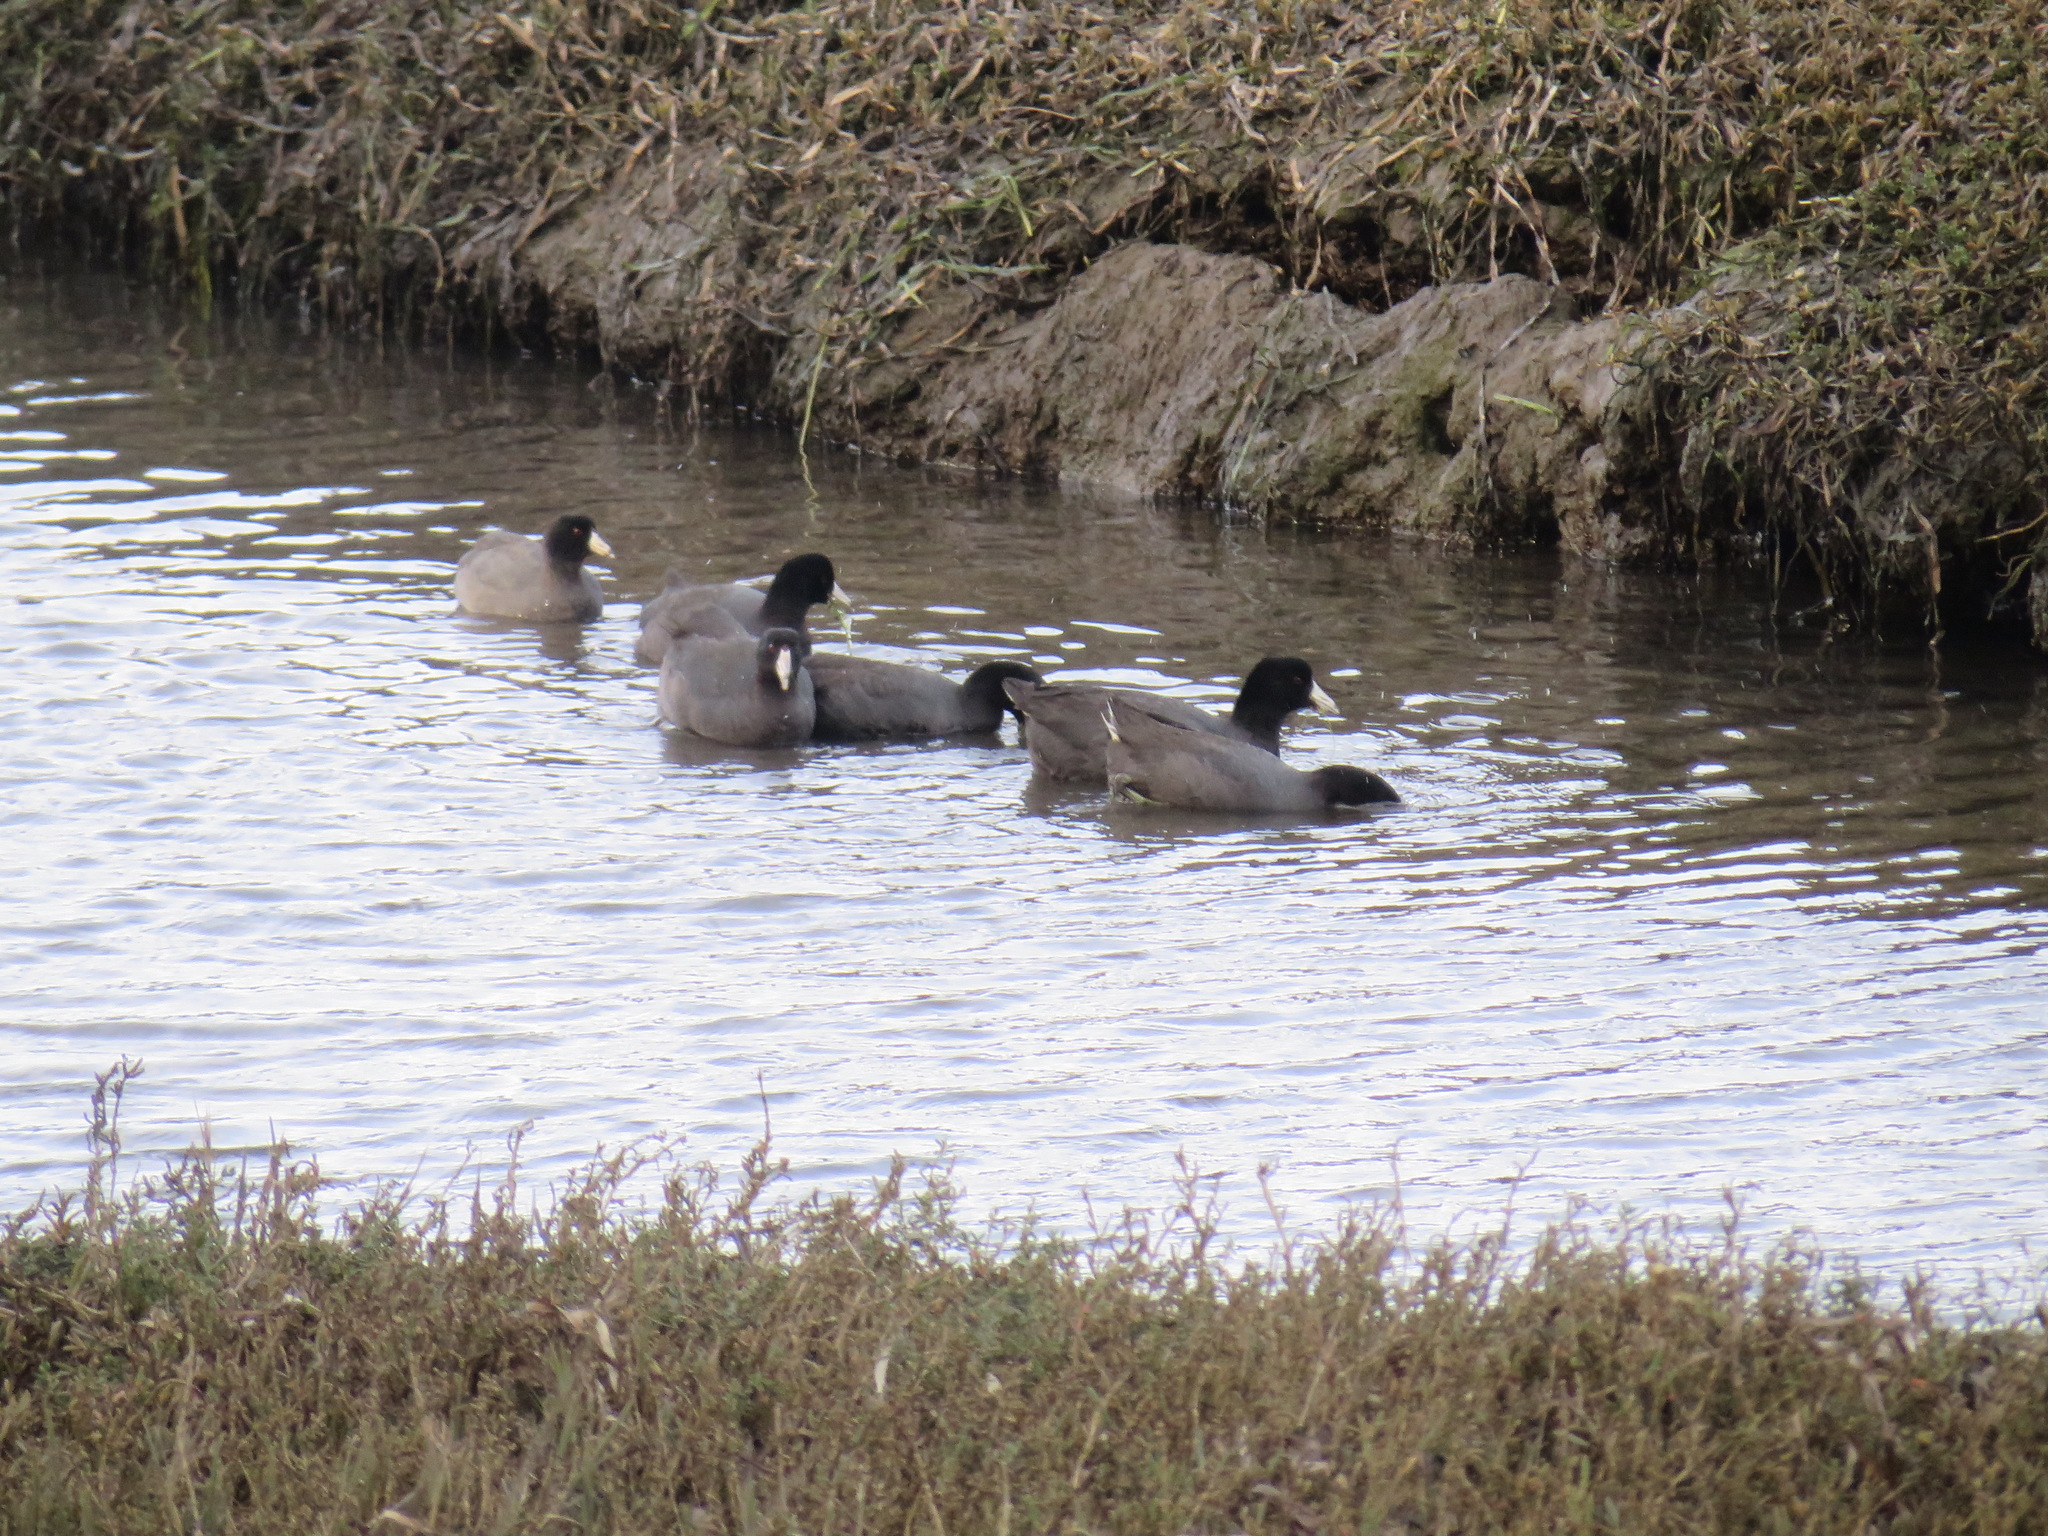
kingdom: Animalia
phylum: Chordata
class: Aves
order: Gruiformes
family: Rallidae
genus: Fulica
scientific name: Fulica americana
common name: American coot
